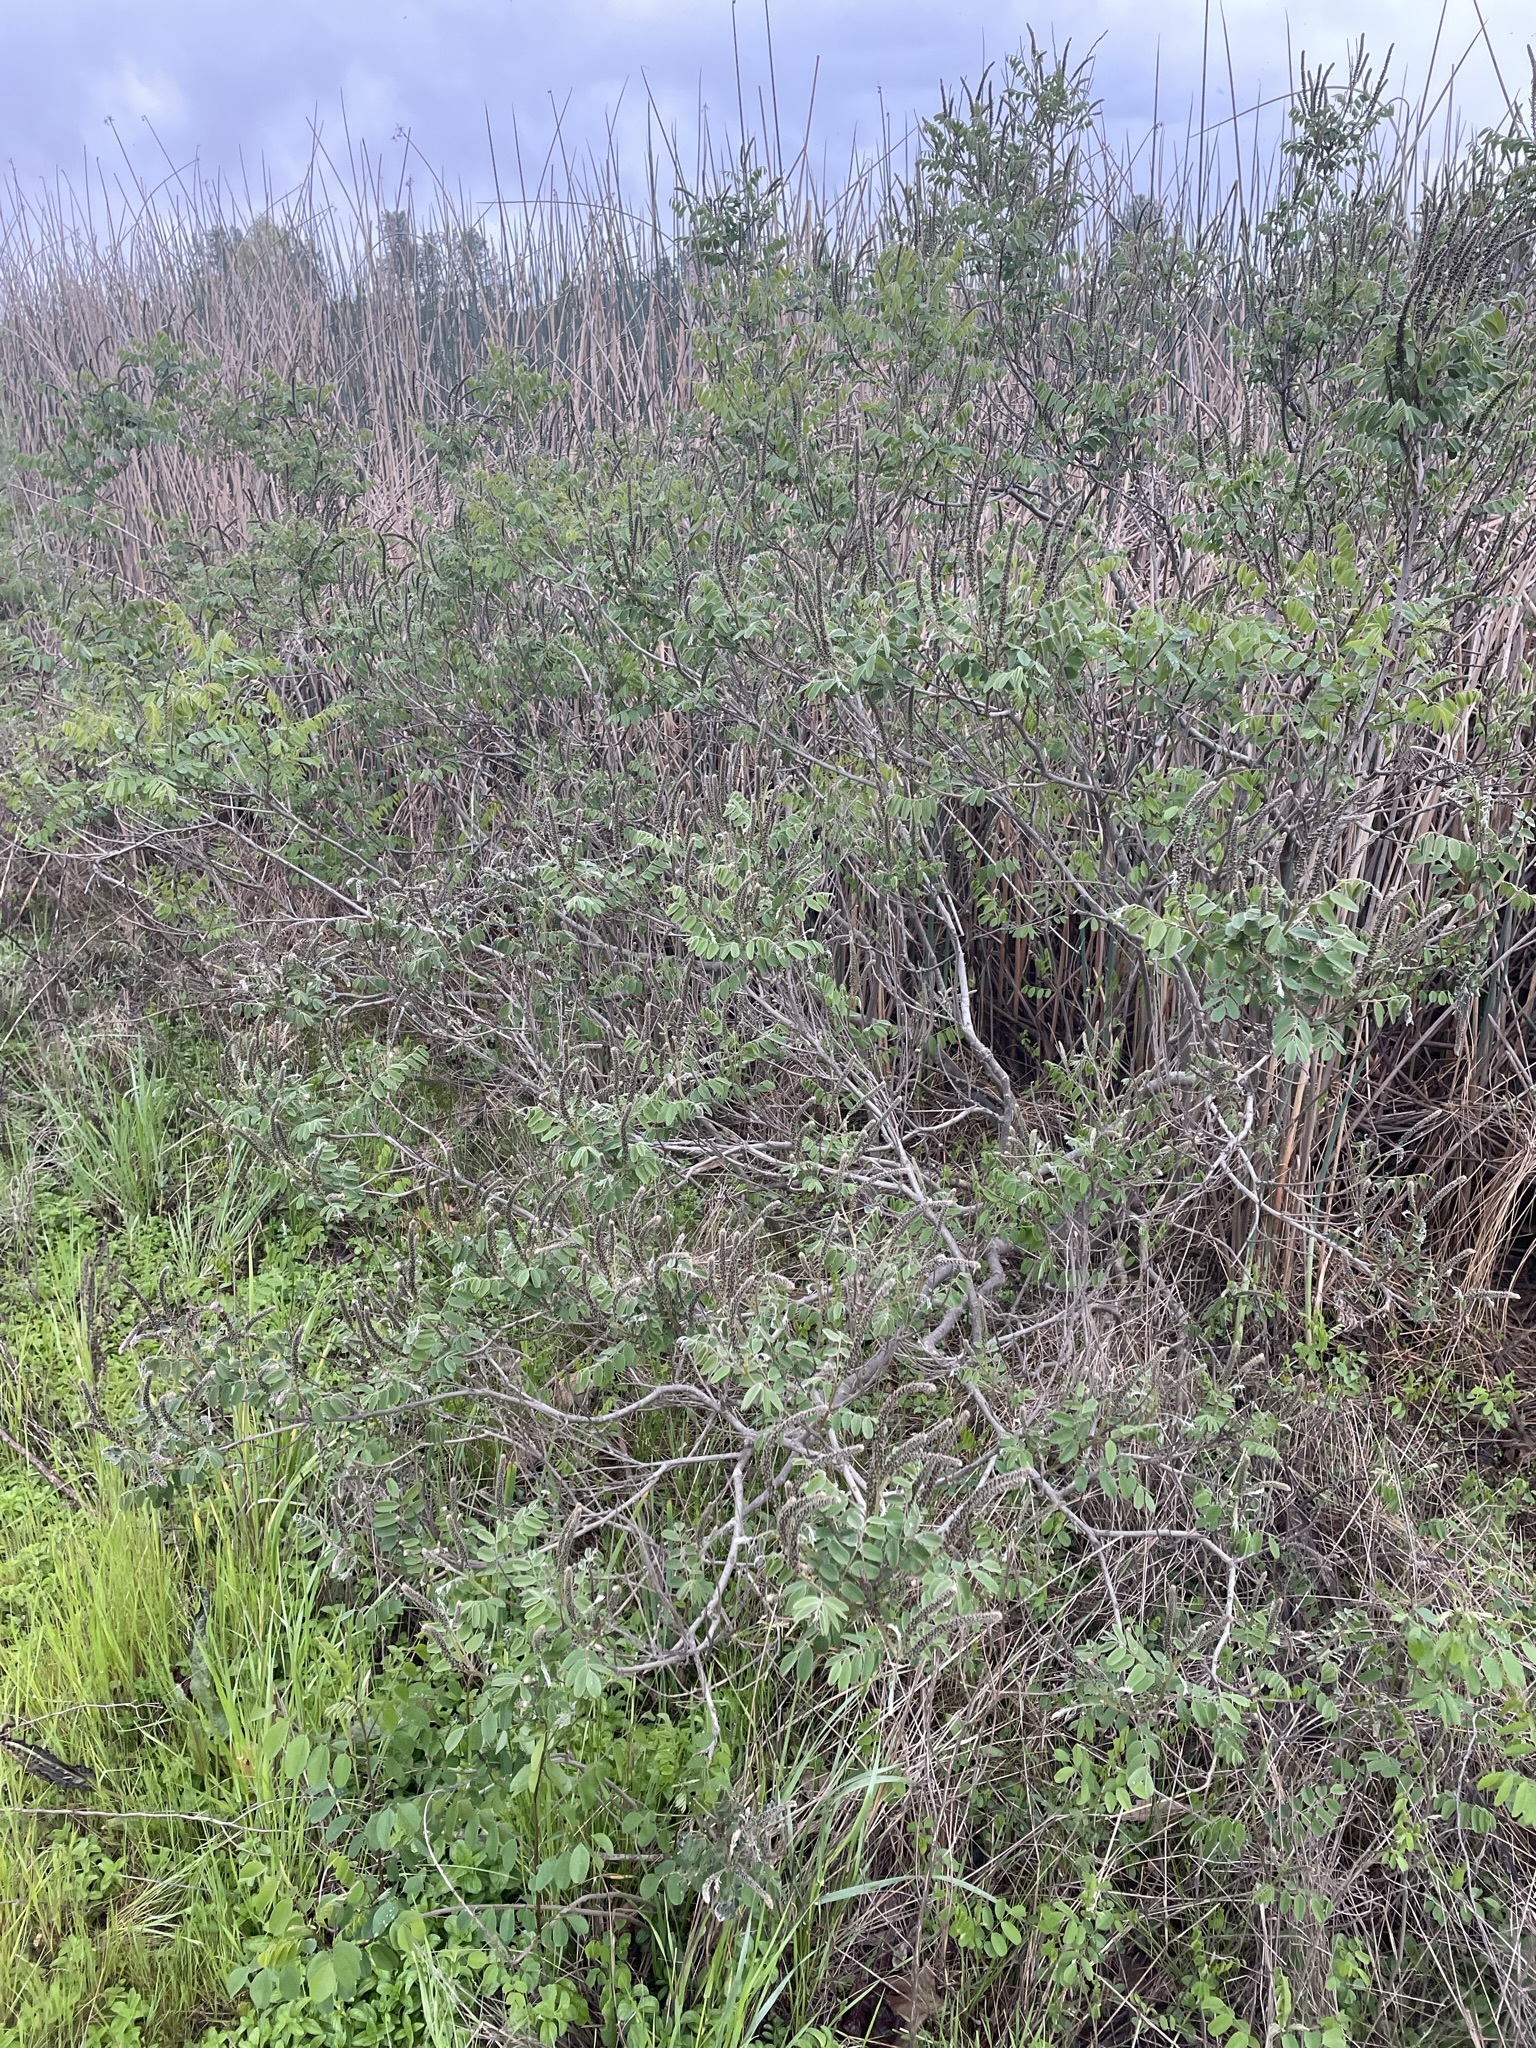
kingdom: Plantae
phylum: Tracheophyta
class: Magnoliopsida
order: Fabales
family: Fabaceae
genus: Amorpha
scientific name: Amorpha californica
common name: California indigobush
